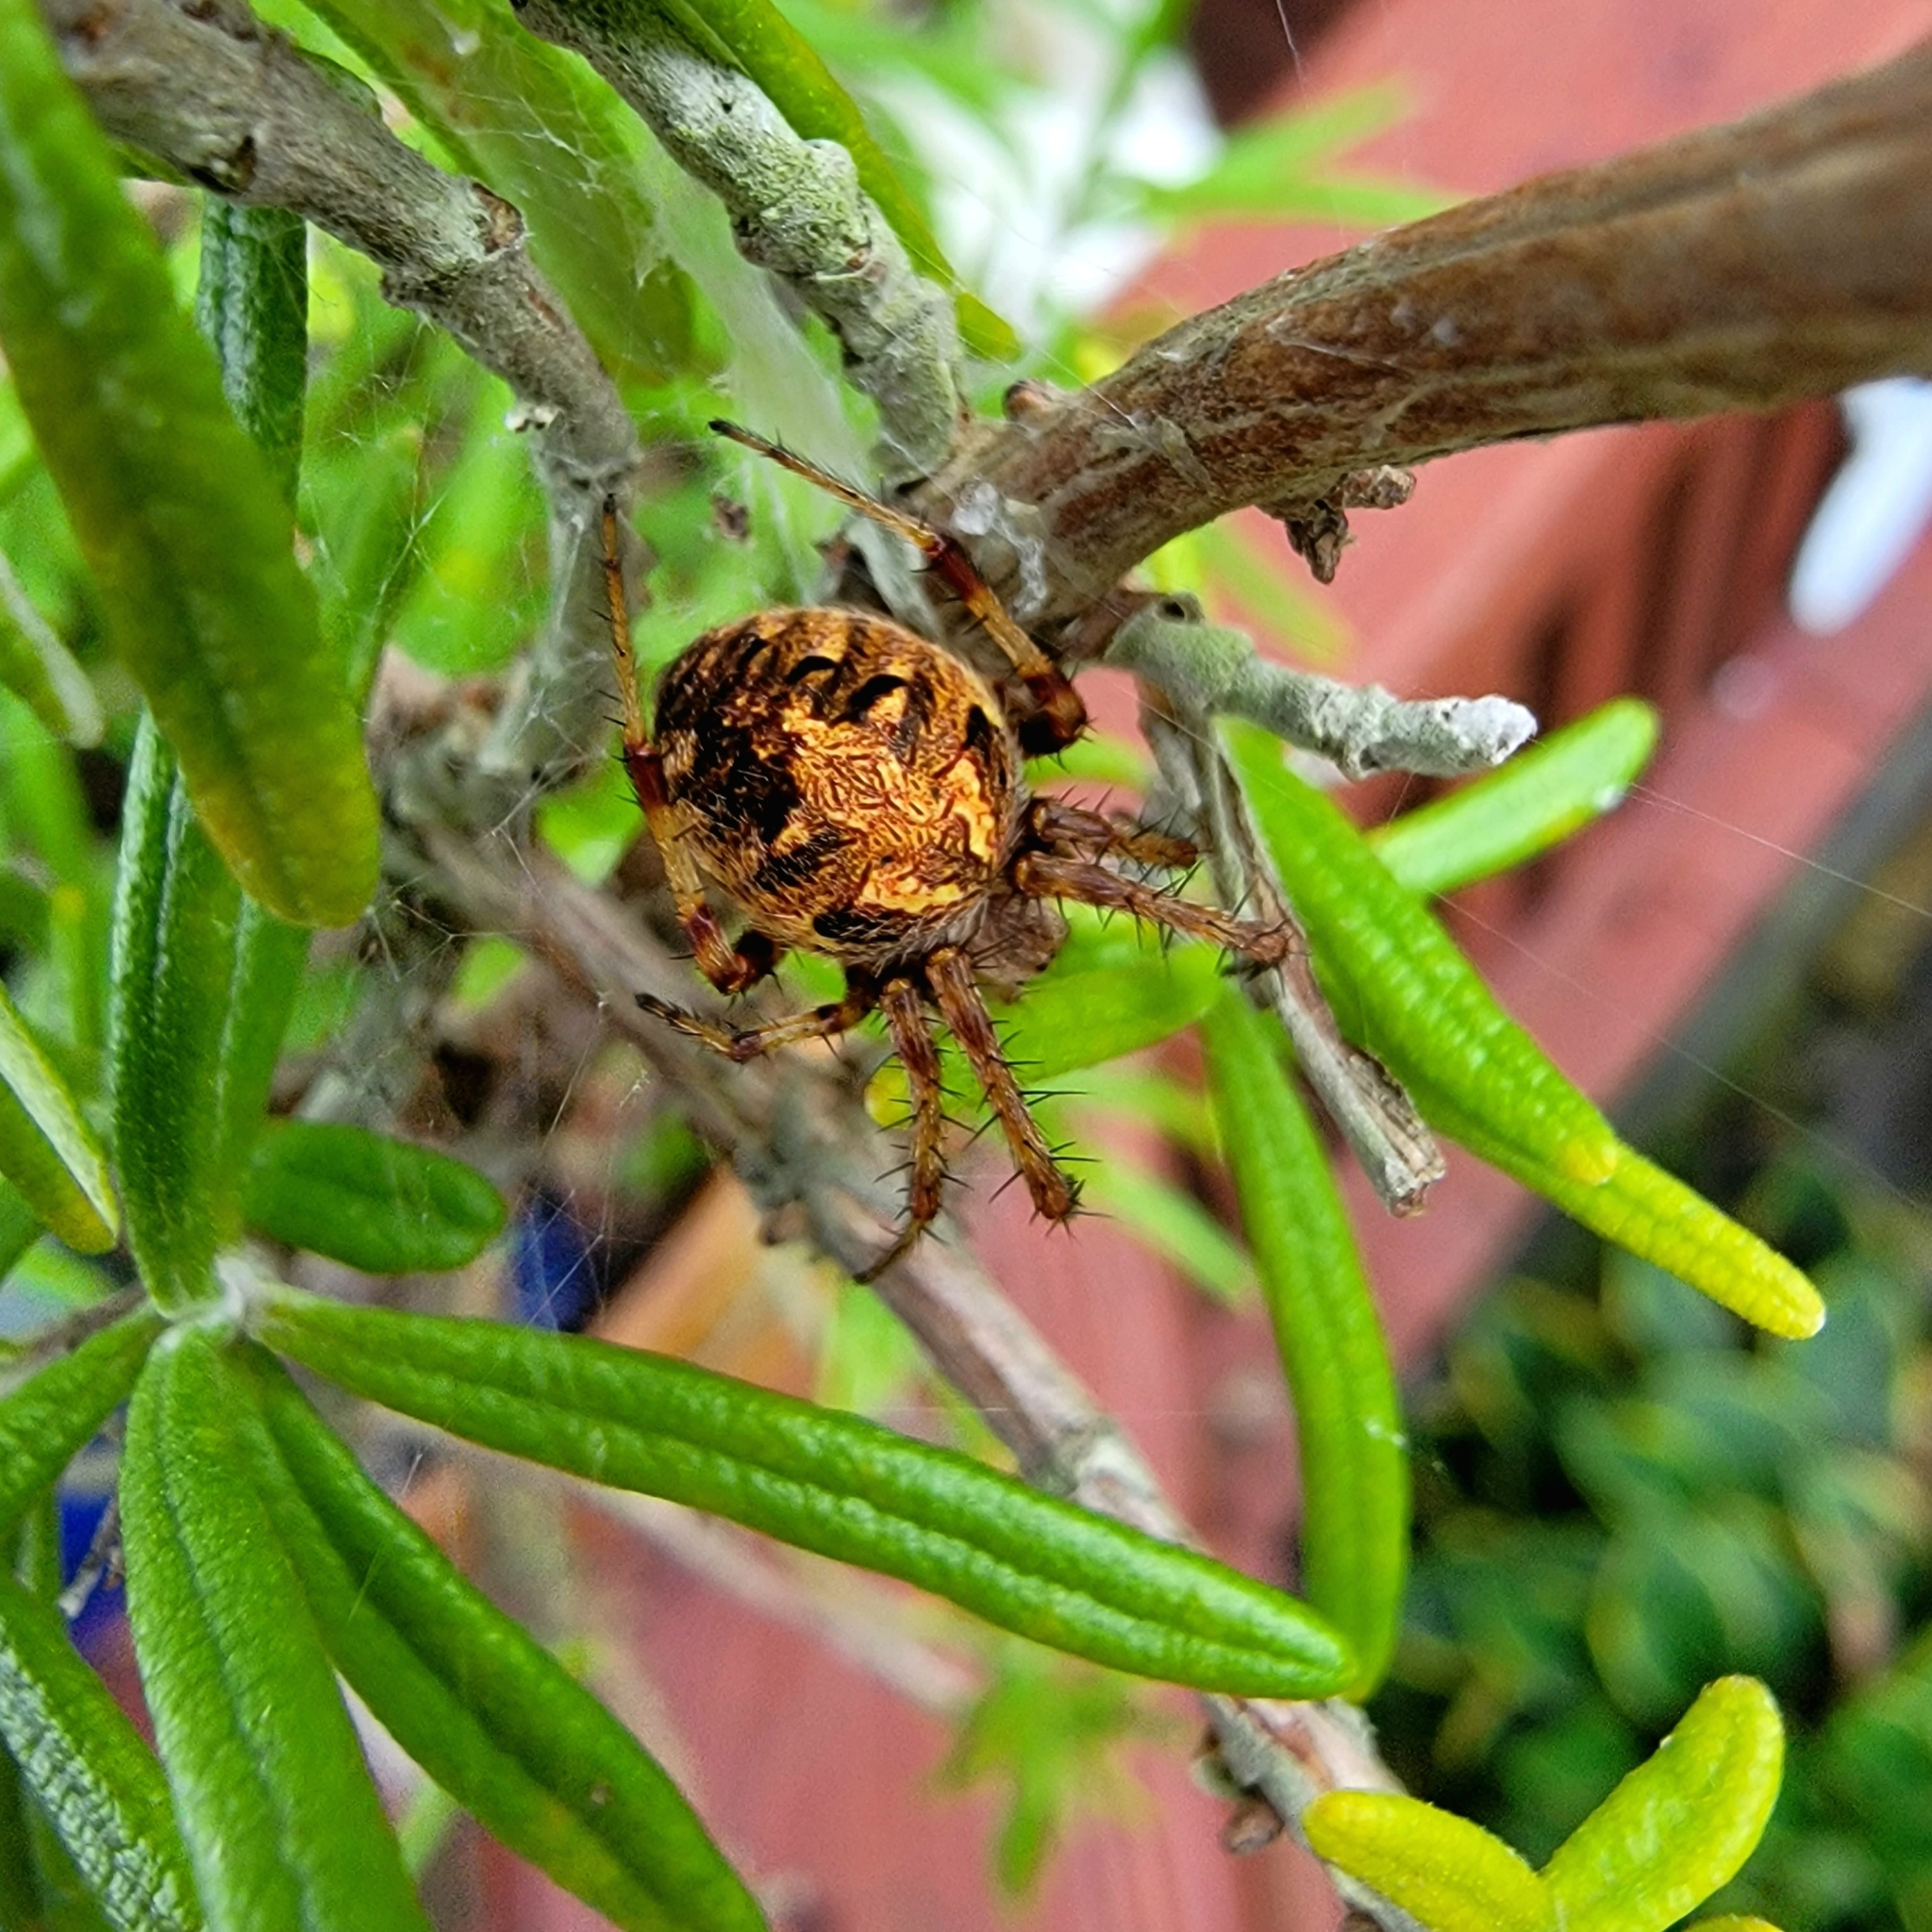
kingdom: Animalia
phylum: Arthropoda
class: Arachnida
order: Araneae
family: Araneidae
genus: Neoscona
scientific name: Neoscona arabesca
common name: Orb weavers
